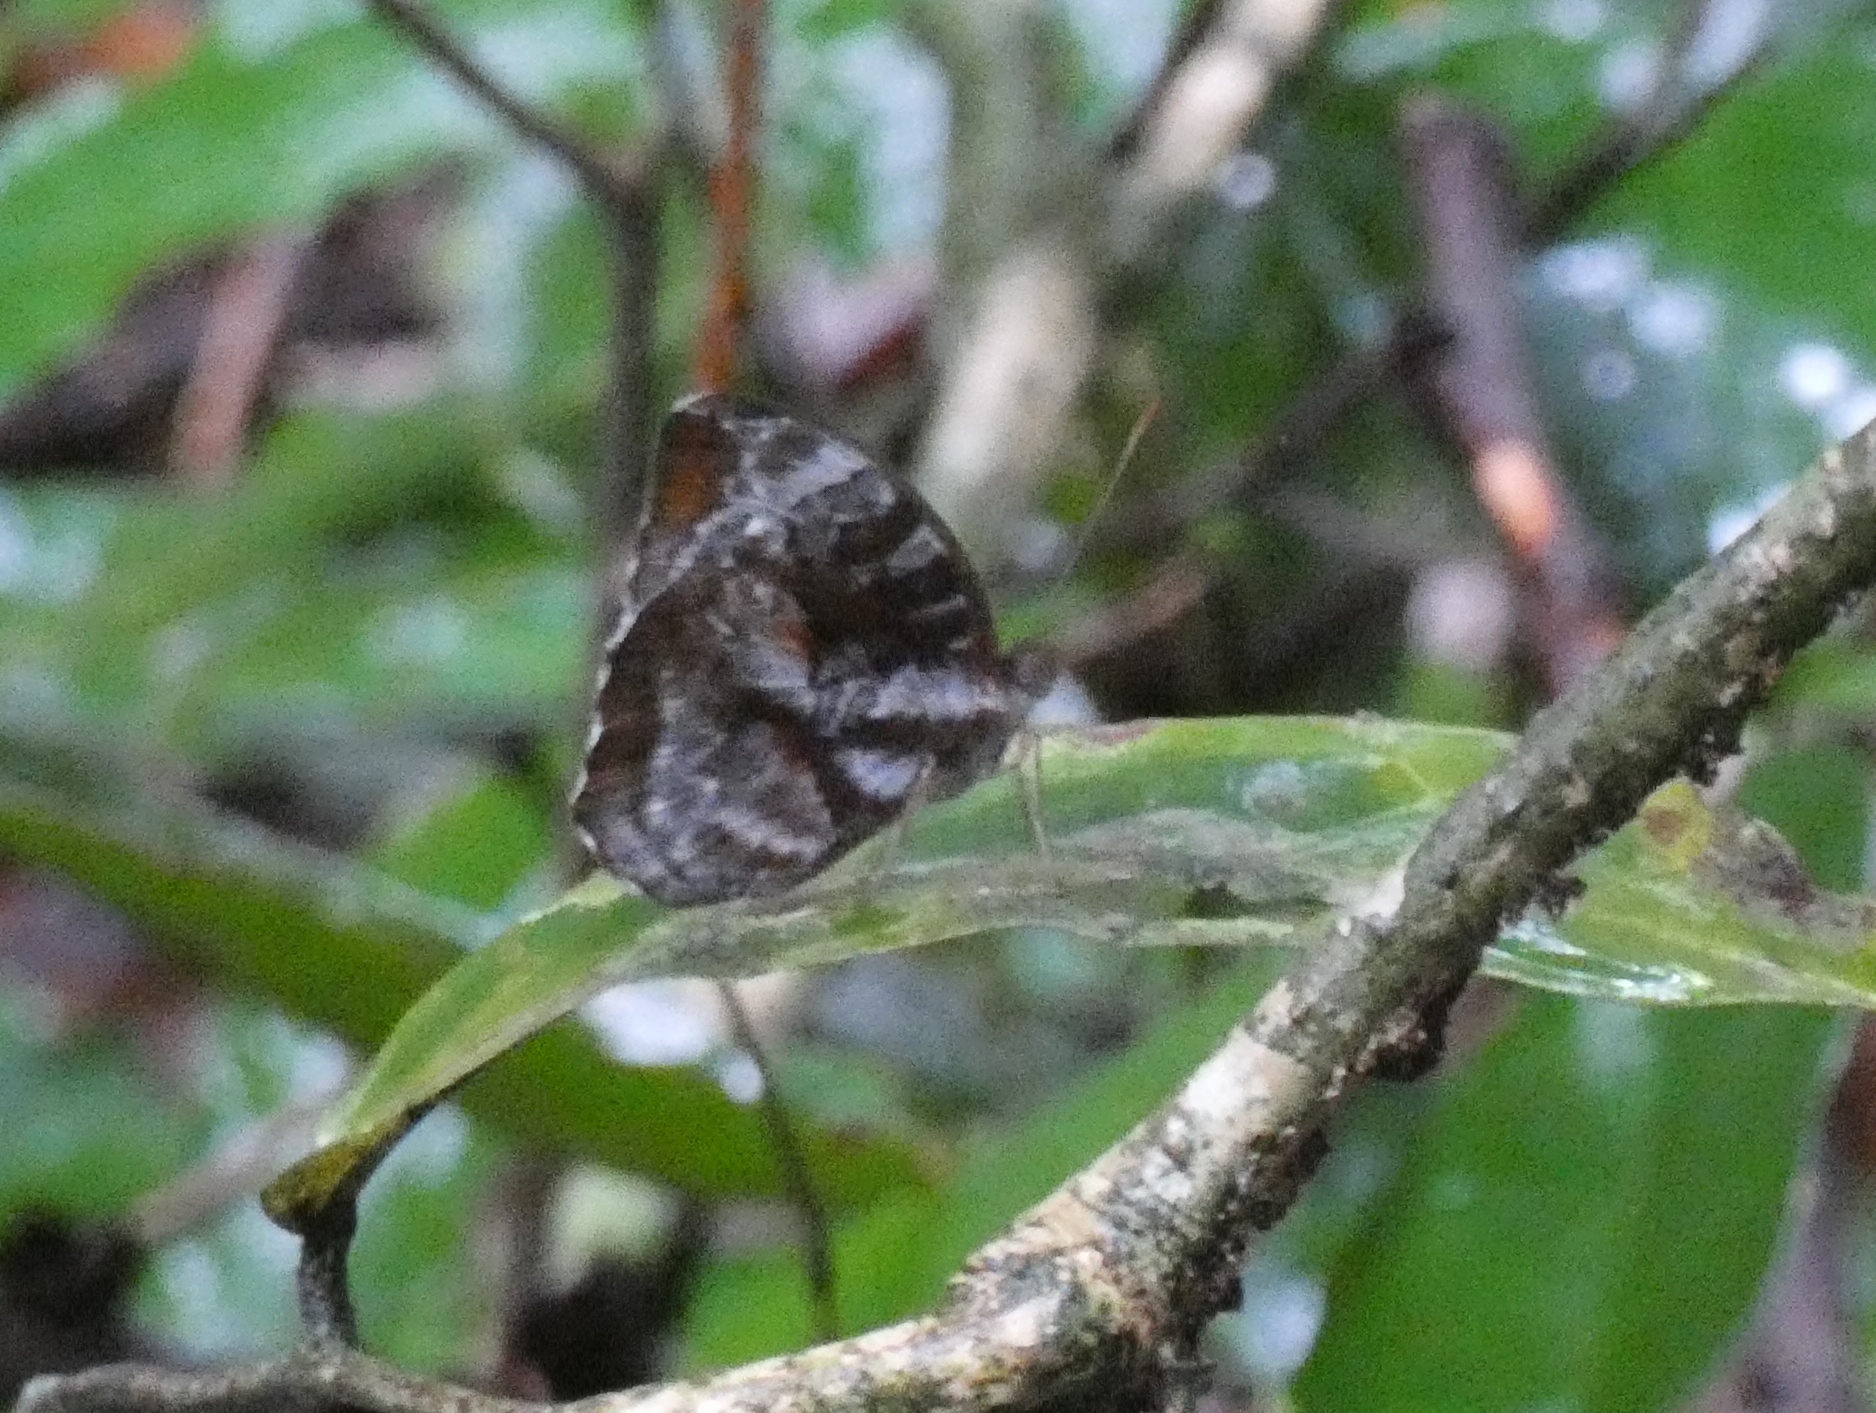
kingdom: Animalia
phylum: Arthropoda
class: Insecta
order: Lepidoptera
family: Nymphalidae
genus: Cynandra
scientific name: Cynandra opis
